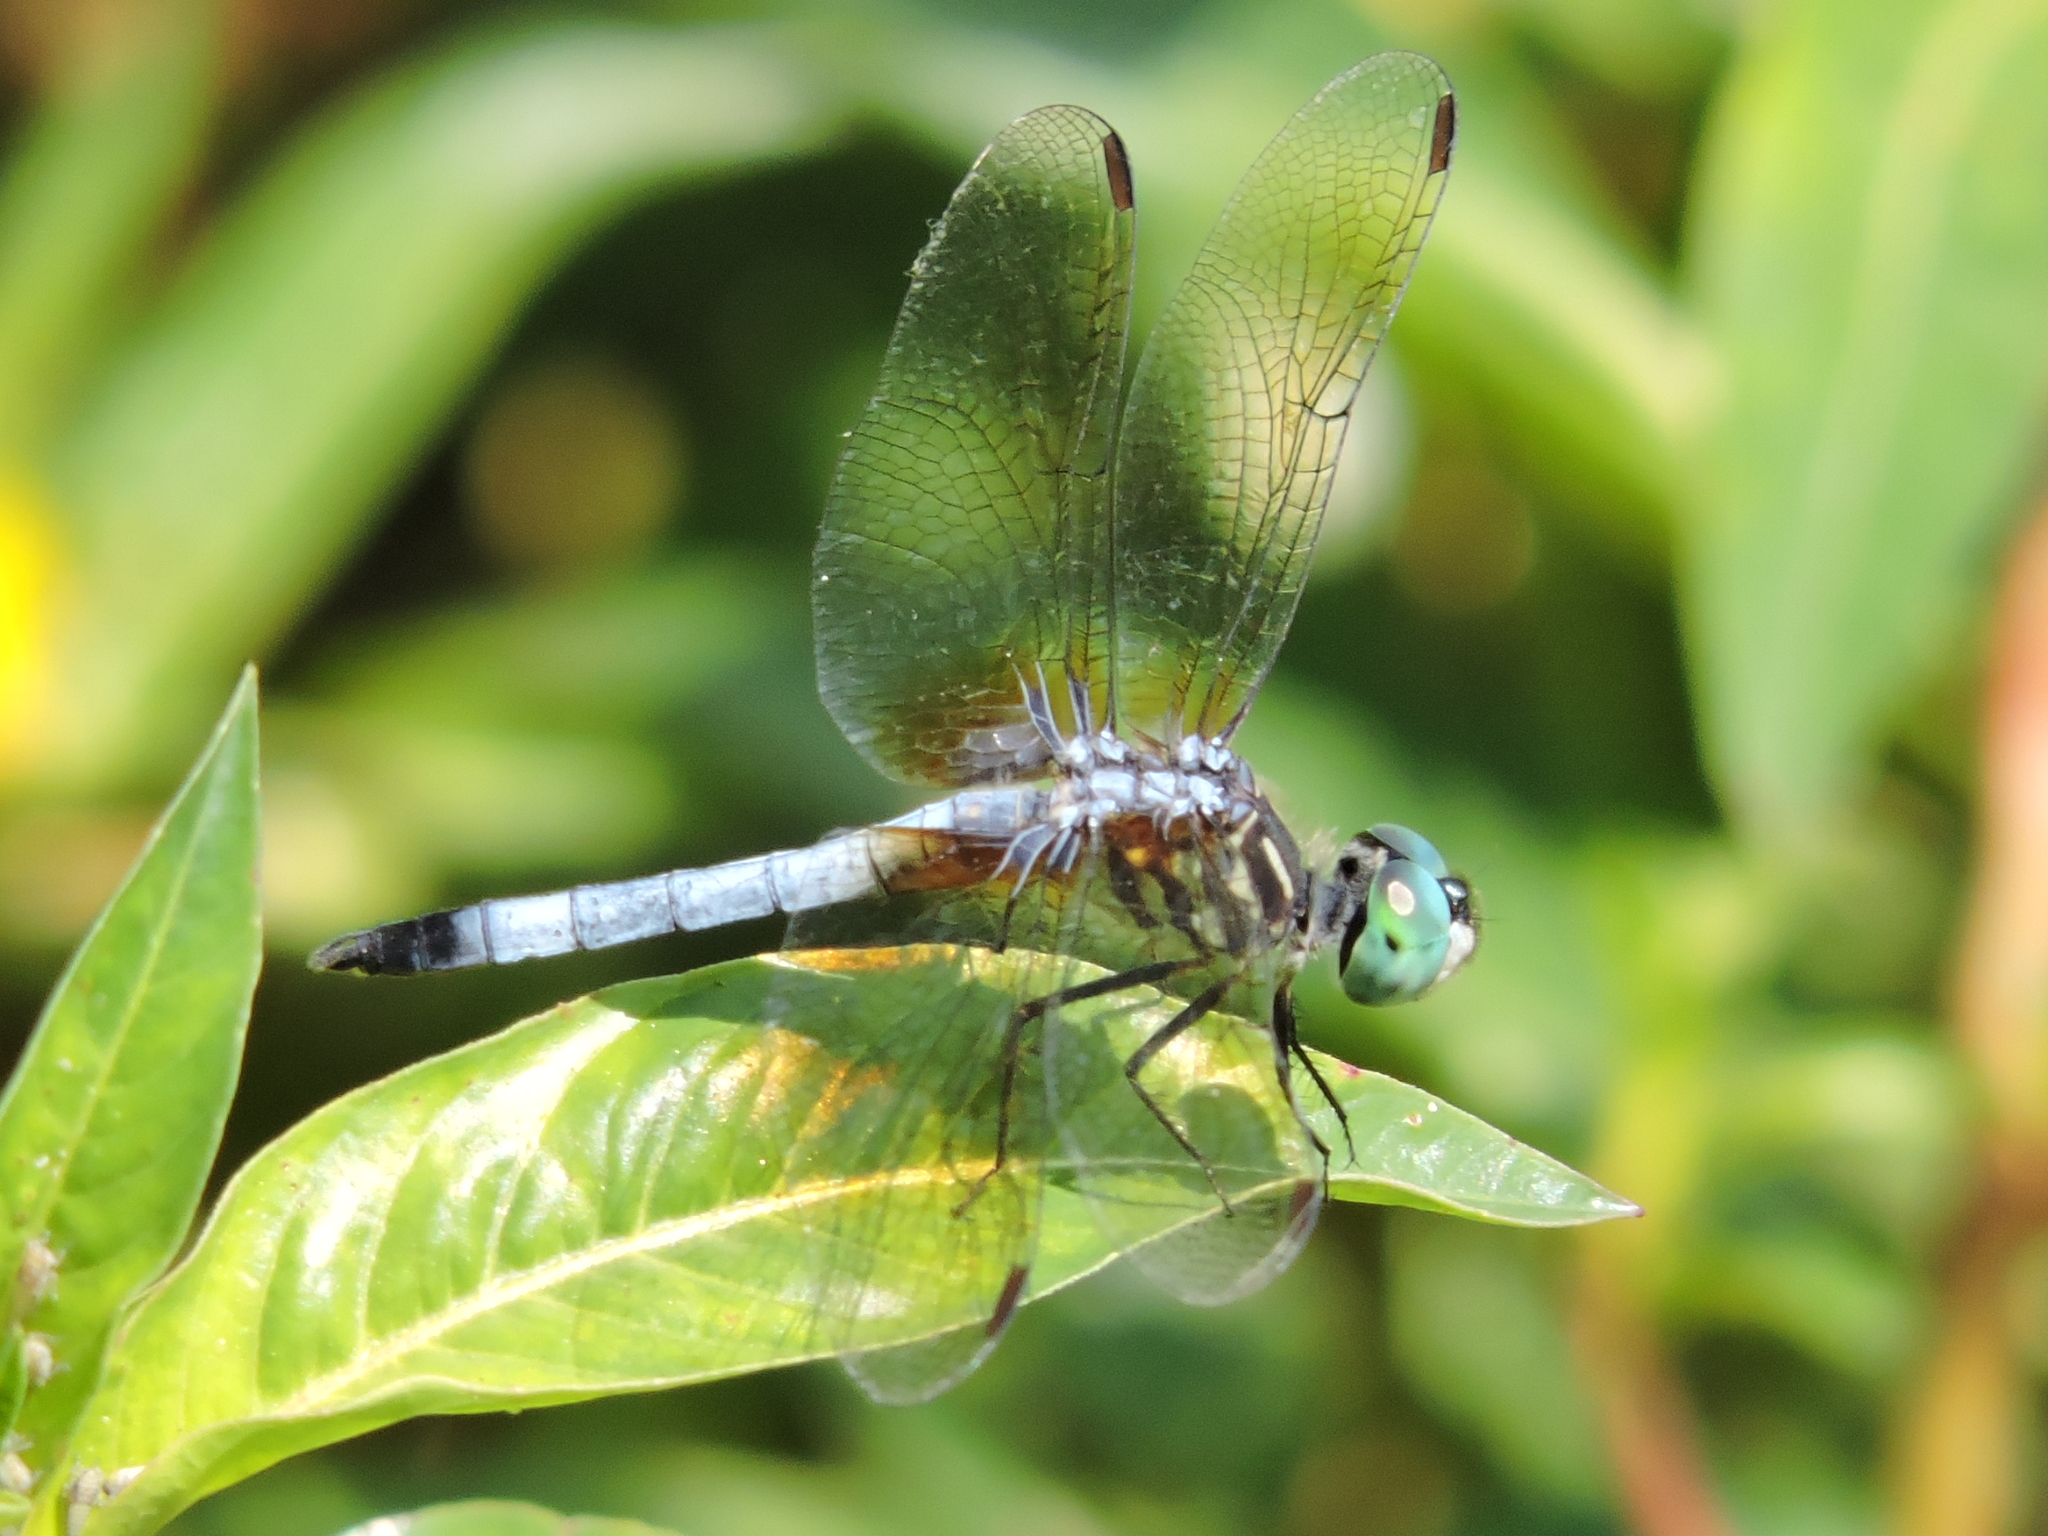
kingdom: Animalia
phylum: Arthropoda
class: Insecta
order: Odonata
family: Libellulidae
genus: Pachydiplax
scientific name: Pachydiplax longipennis
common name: Blue dasher
